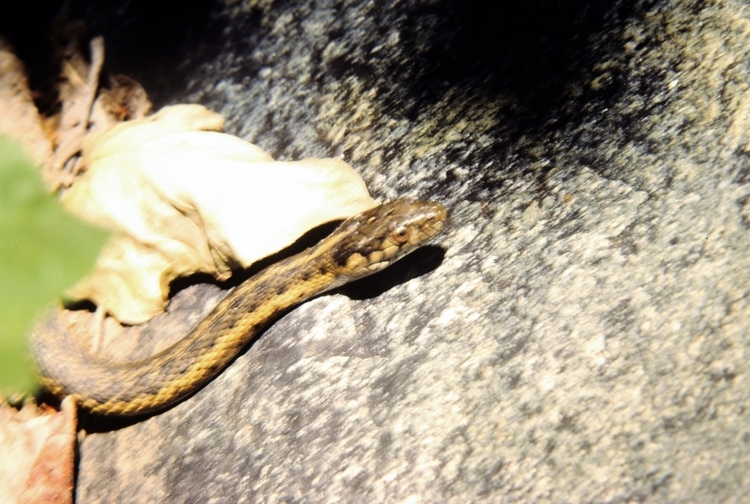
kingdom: Animalia
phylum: Chordata
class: Squamata
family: Colubridae
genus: Thamnophis
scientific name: Thamnophis couchii
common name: Western aquatic garter snake
